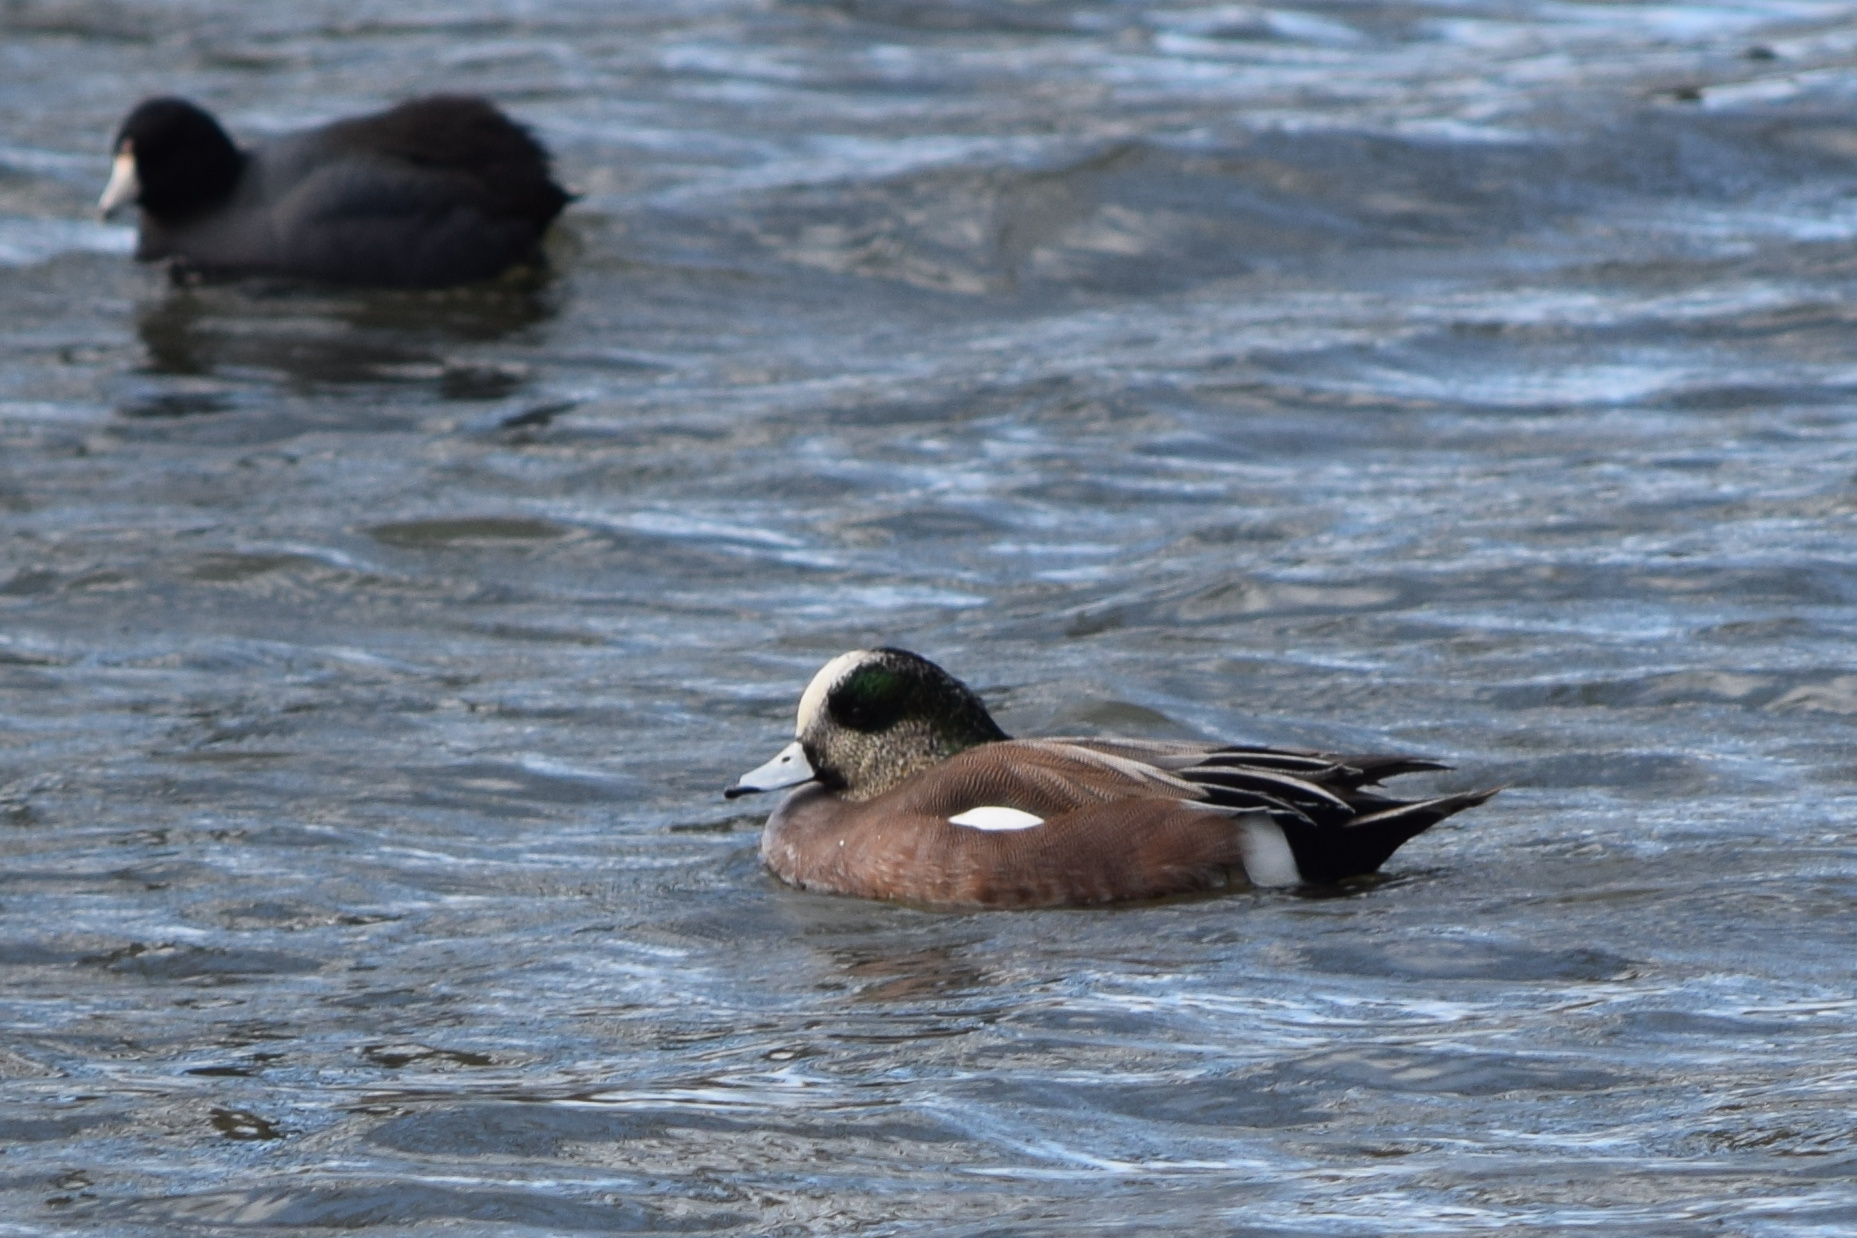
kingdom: Animalia
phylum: Chordata
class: Aves
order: Anseriformes
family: Anatidae
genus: Mareca
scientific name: Mareca americana
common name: American wigeon
